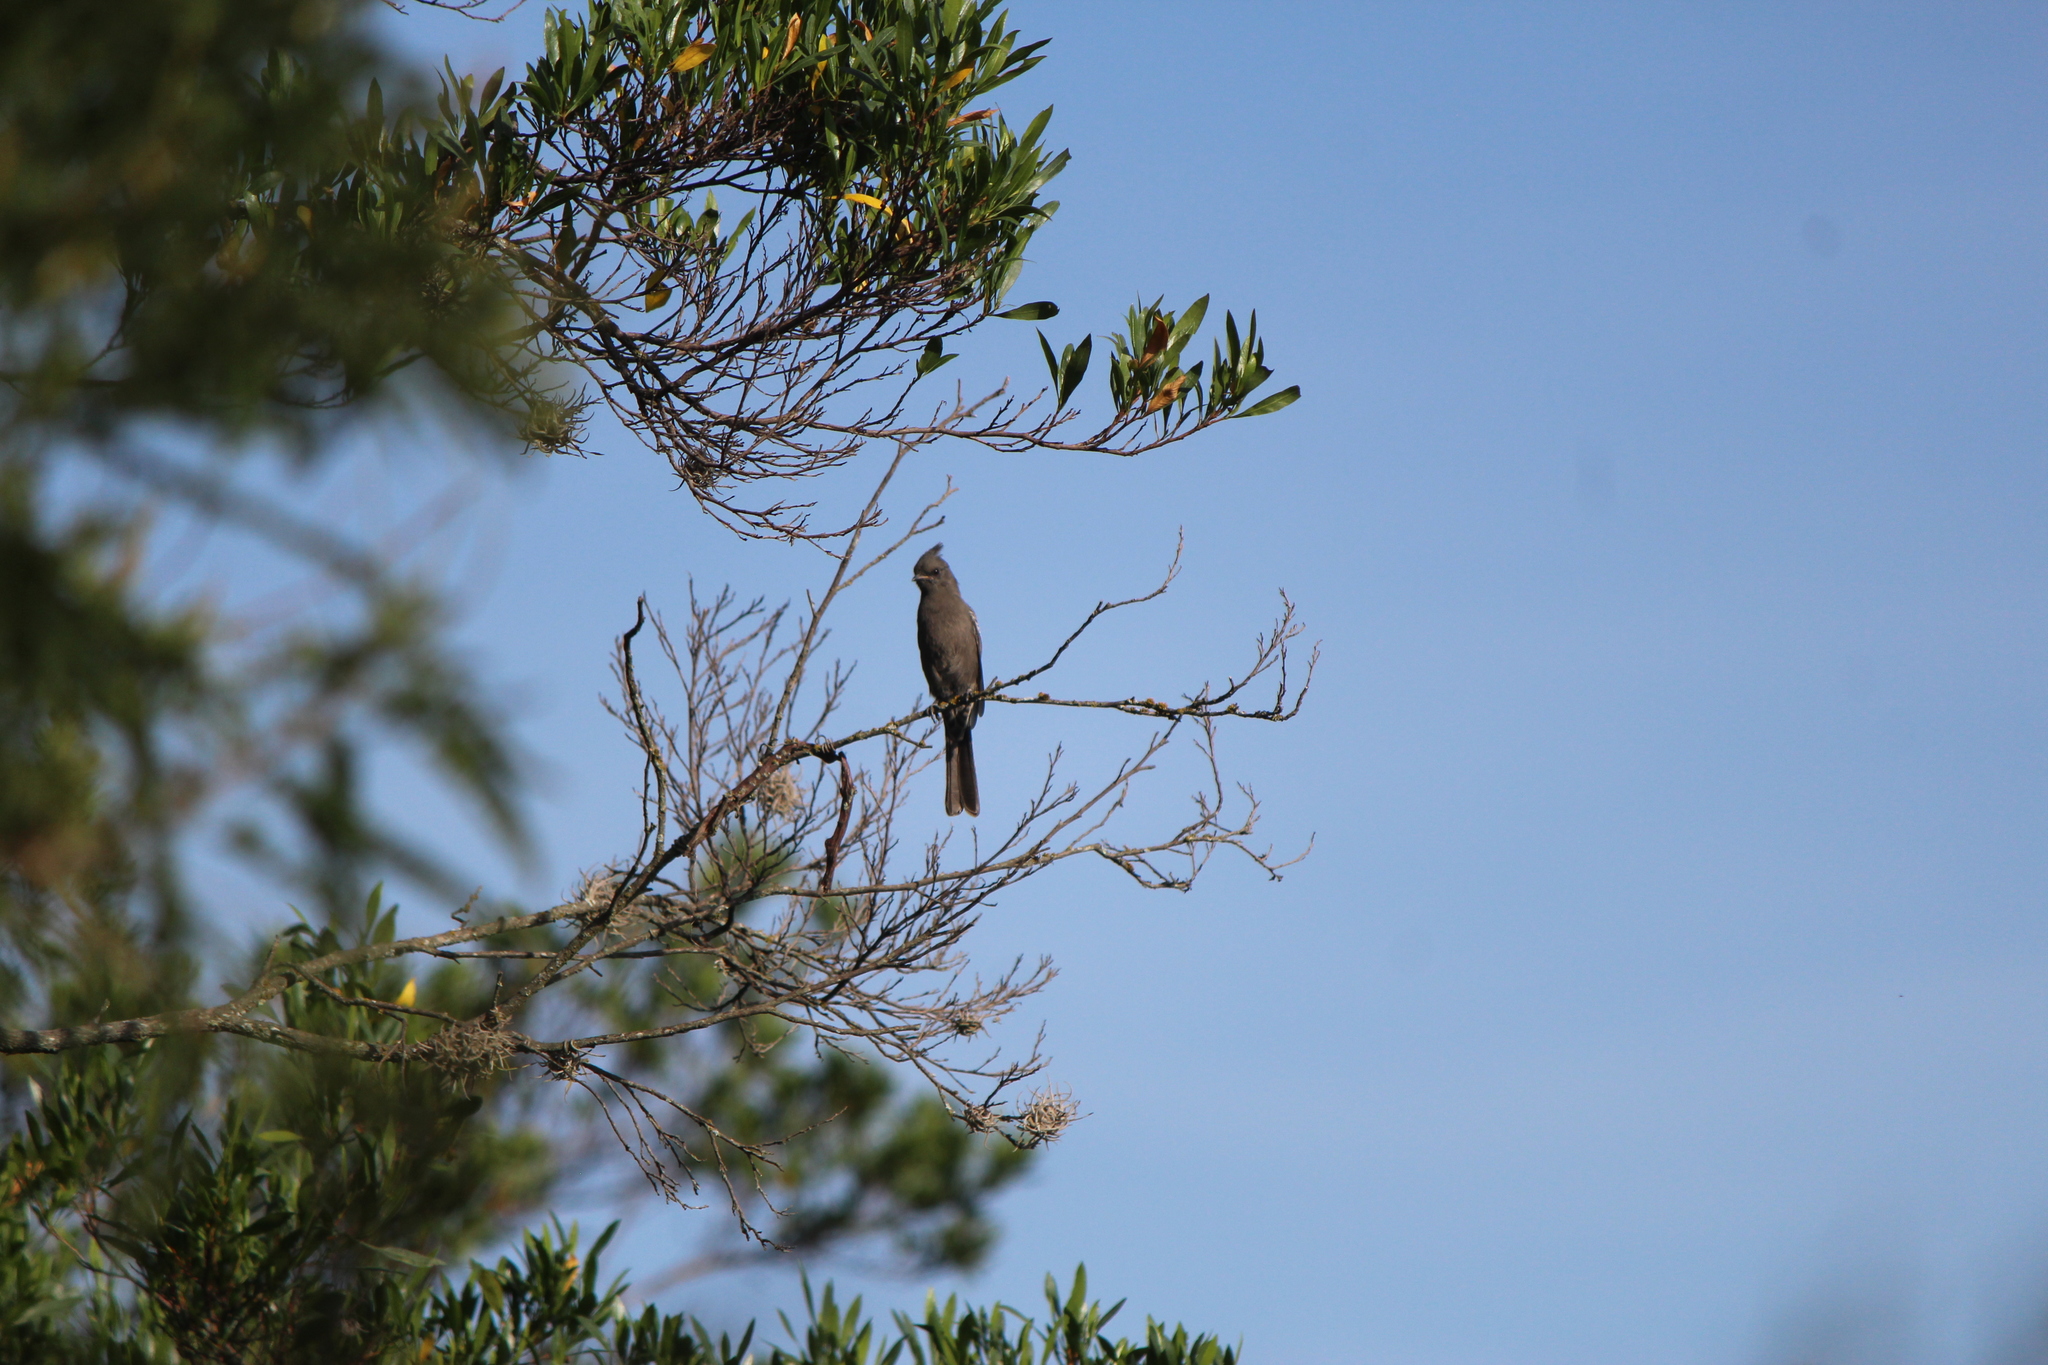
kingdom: Animalia
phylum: Chordata
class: Aves
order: Passeriformes
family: Ptilogonatidae
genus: Phainopepla
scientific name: Phainopepla nitens
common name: Phainopepla
